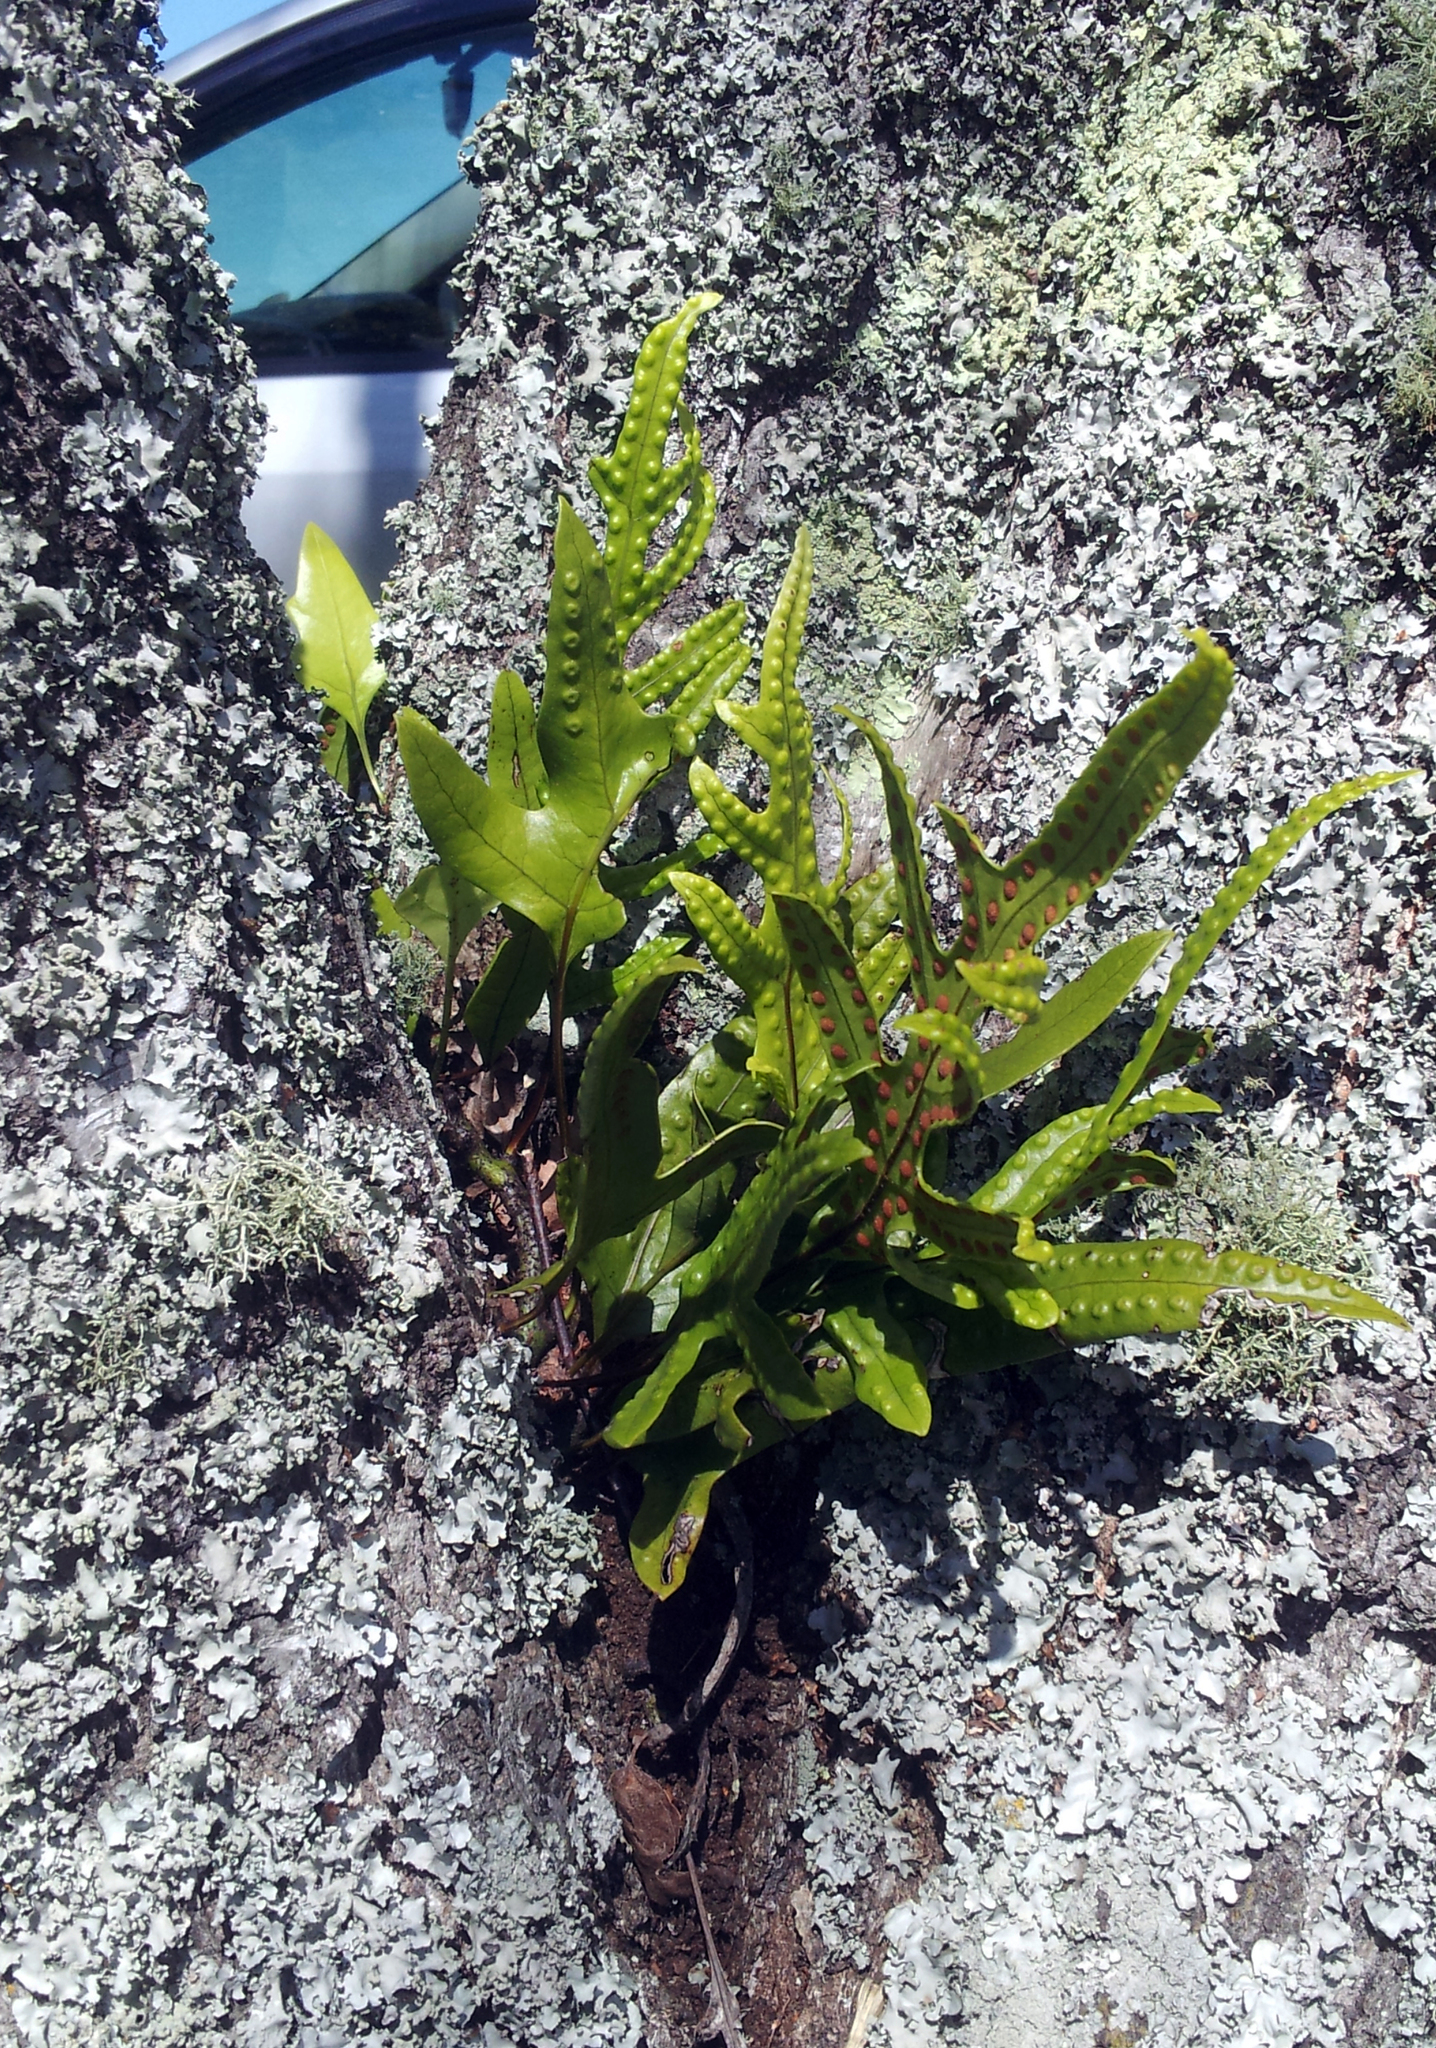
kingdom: Plantae
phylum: Tracheophyta
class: Polypodiopsida
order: Polypodiales
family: Polypodiaceae
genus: Lecanopteris
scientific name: Lecanopteris pustulata
